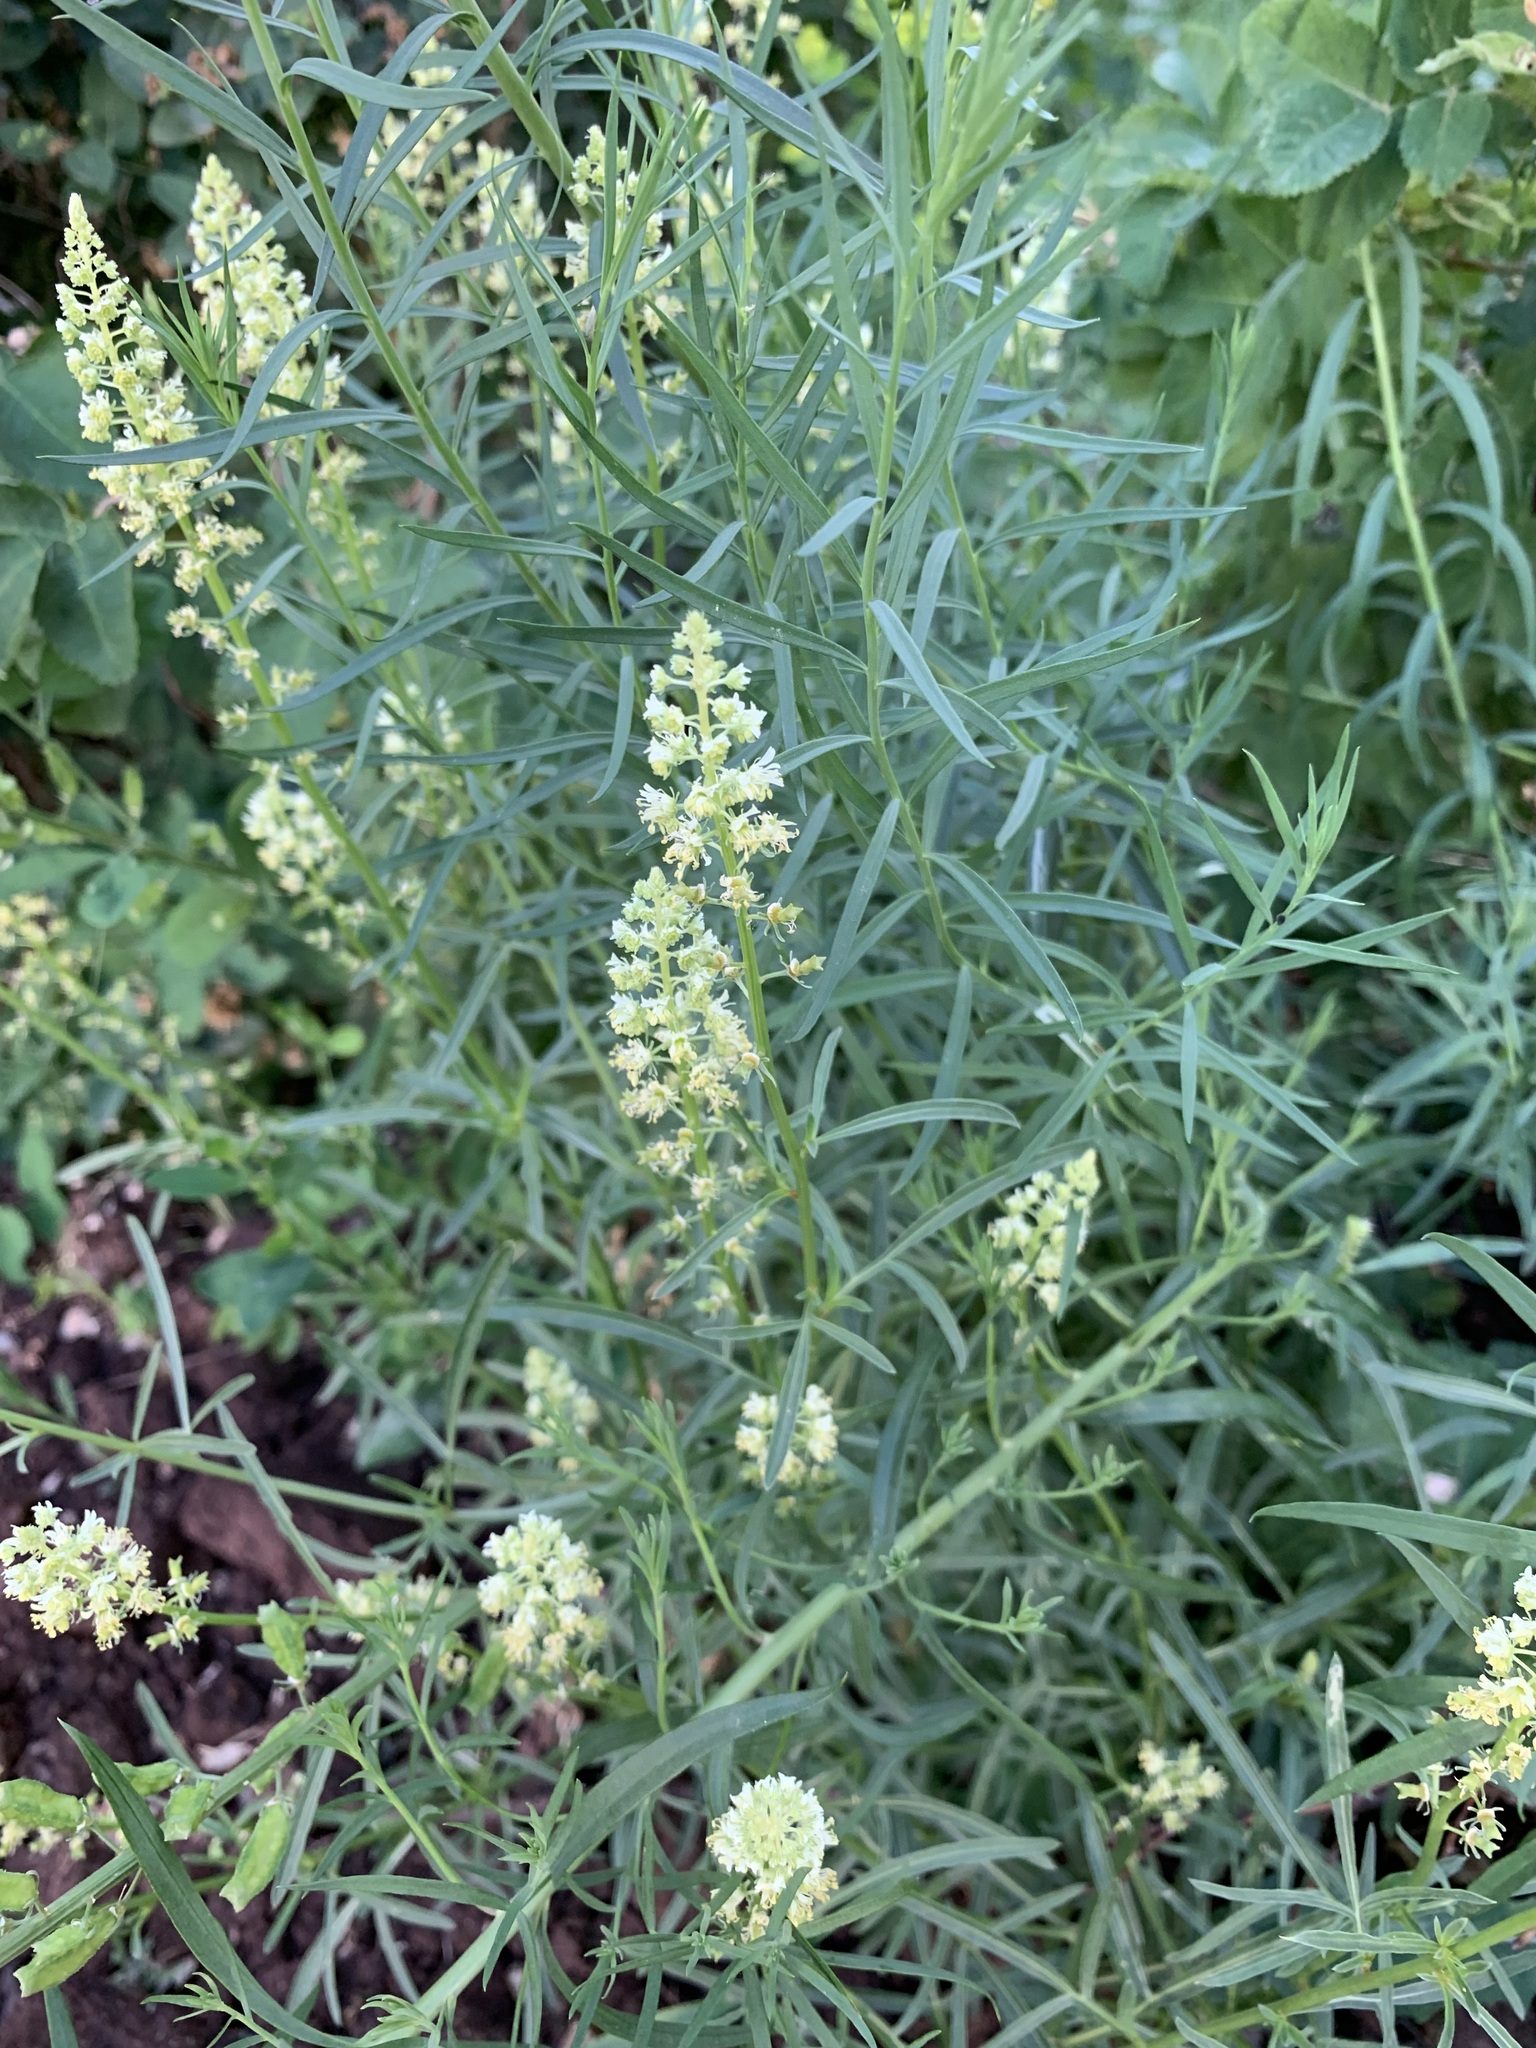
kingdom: Plantae
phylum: Tracheophyta
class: Magnoliopsida
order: Brassicales
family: Resedaceae
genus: Reseda
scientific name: Reseda lutea
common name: Wild mignonette
